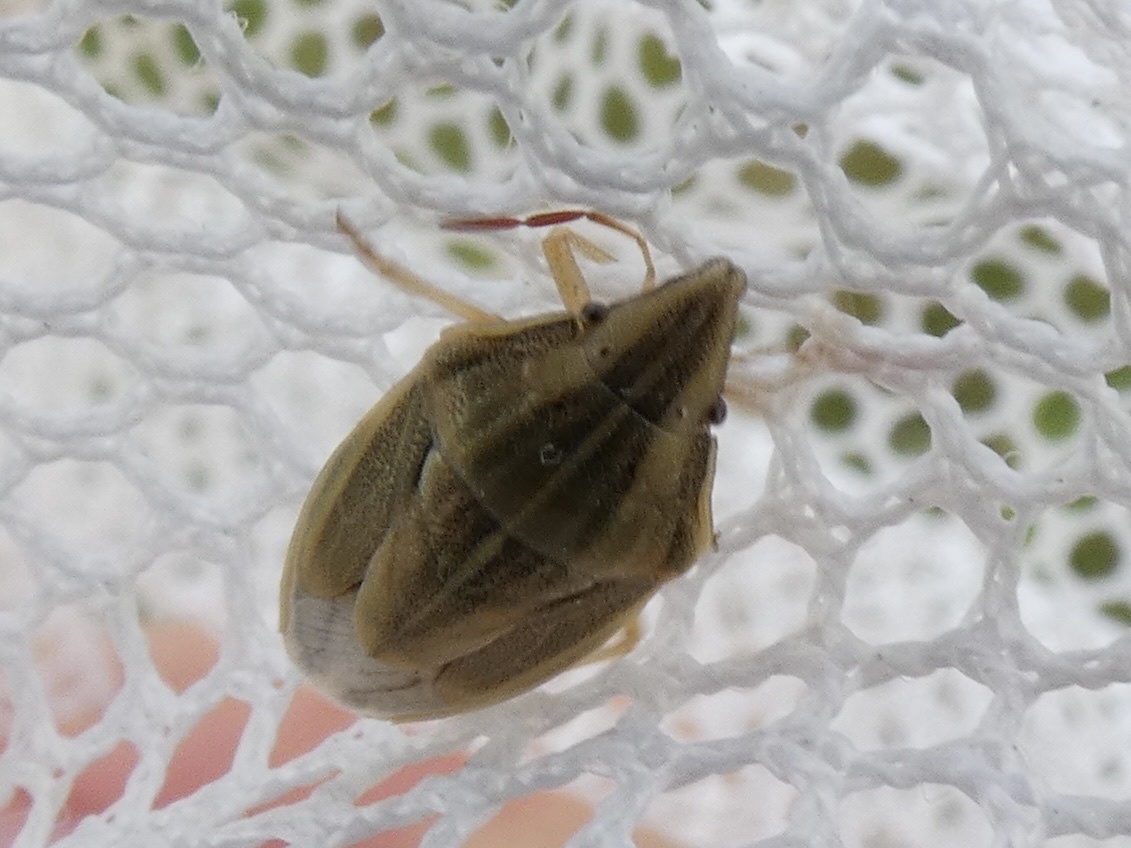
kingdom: Animalia
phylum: Arthropoda
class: Insecta
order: Hemiptera
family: Pentatomidae
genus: Aelia
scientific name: Aelia acuminata
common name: Bishop's mitre
